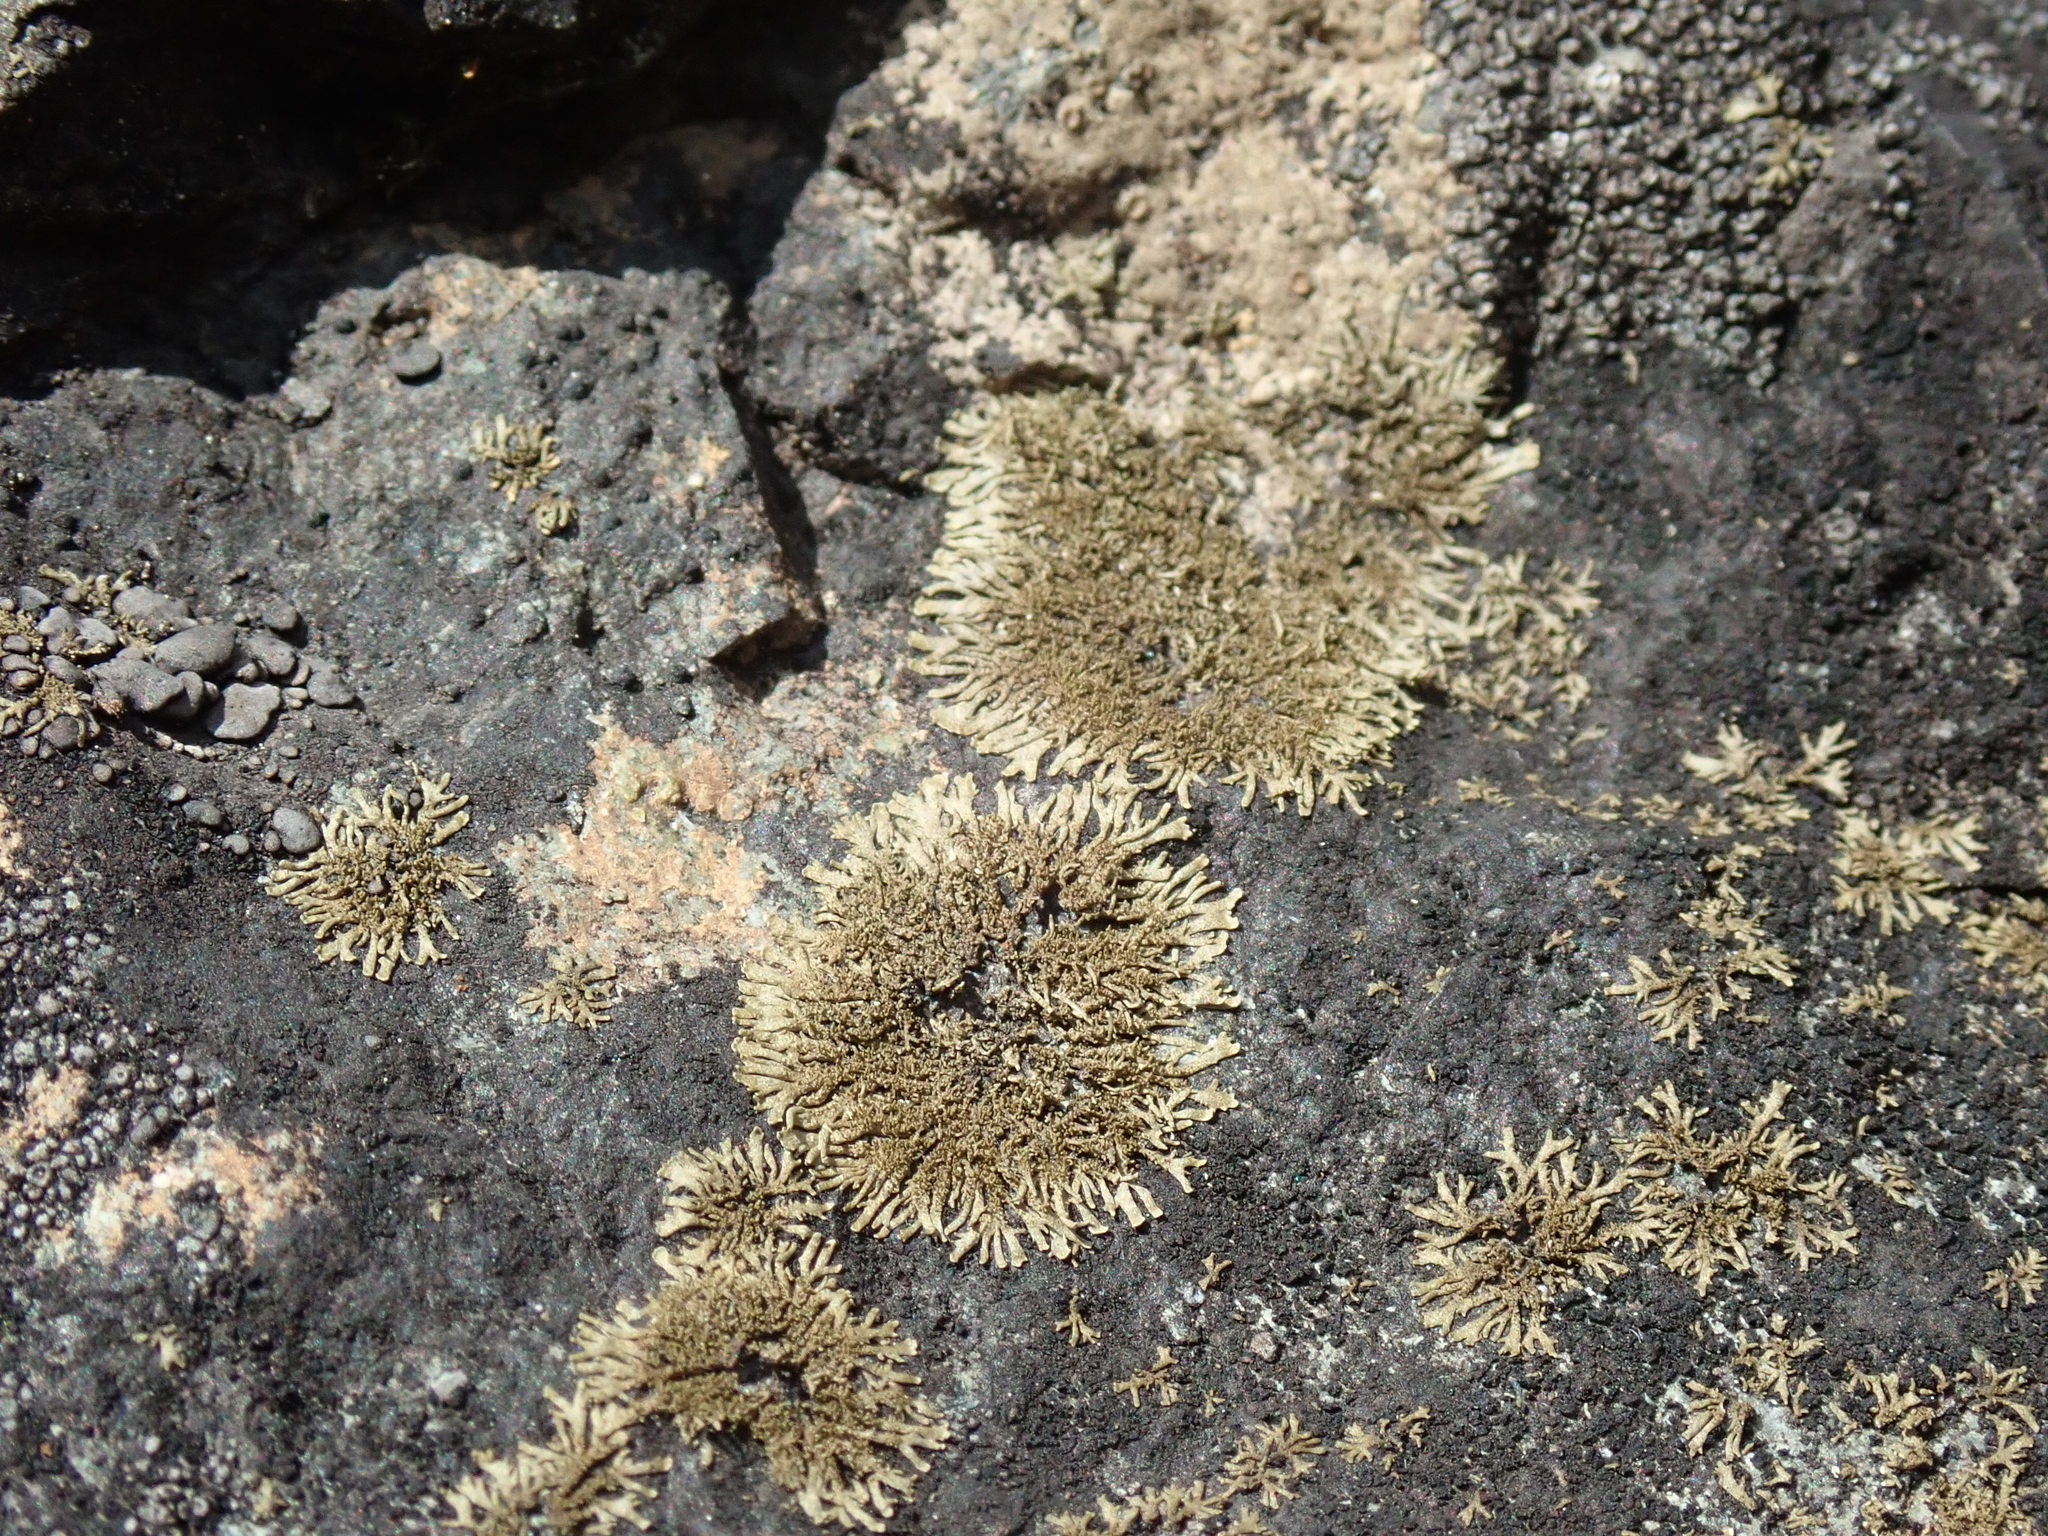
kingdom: Fungi
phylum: Ascomycota
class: Lecanoromycetes
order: Peltigerales
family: Koerberiaceae
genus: Tingiopsidium
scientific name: Tingiopsidium isidiatum
